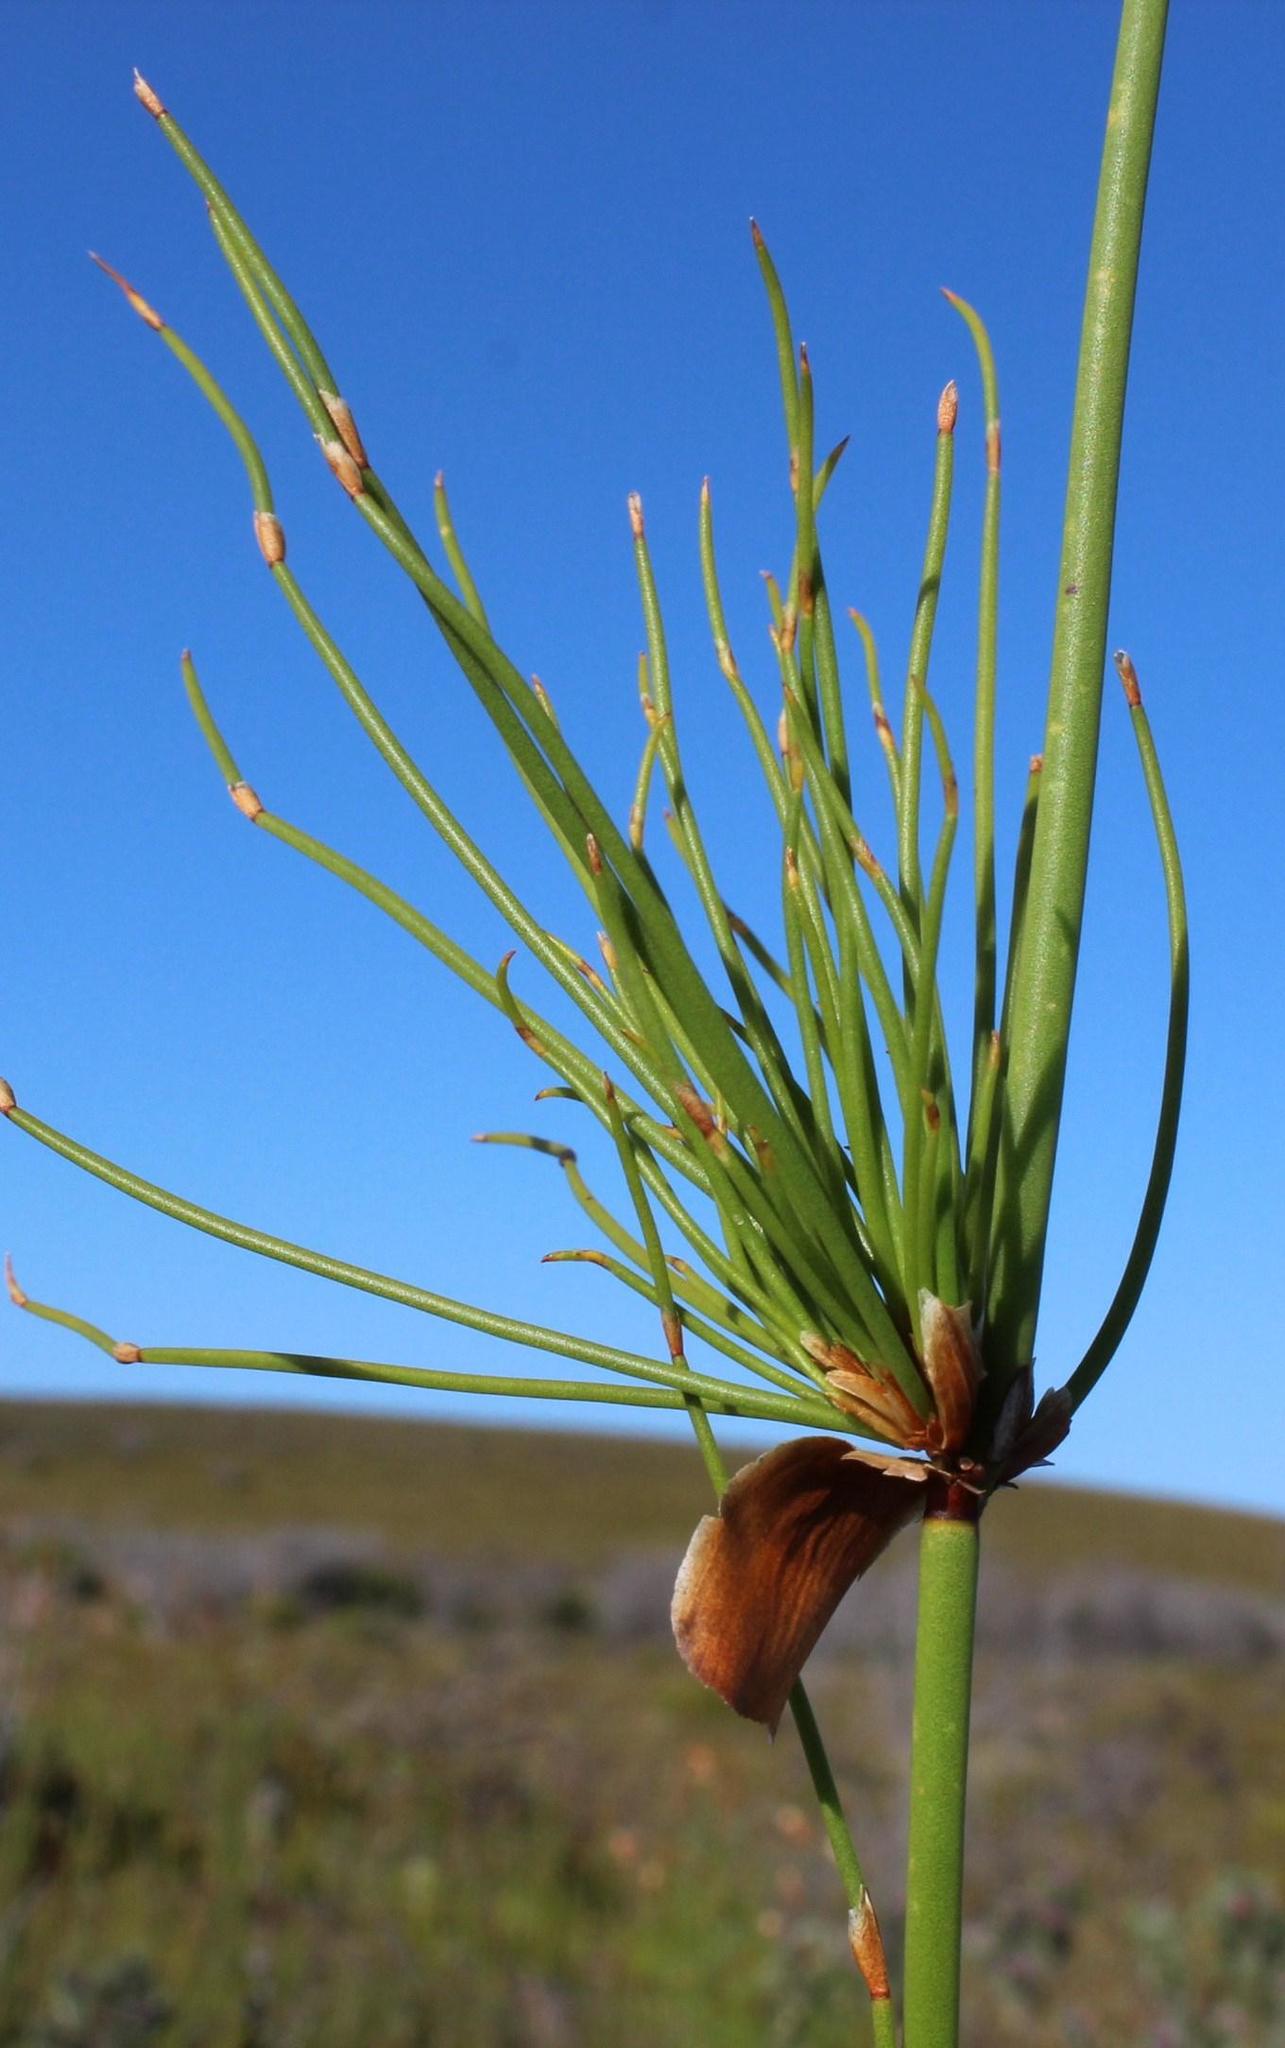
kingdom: Plantae
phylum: Tracheophyta
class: Liliopsida
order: Poales
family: Restionaceae
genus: Elegia
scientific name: Elegia capensis
